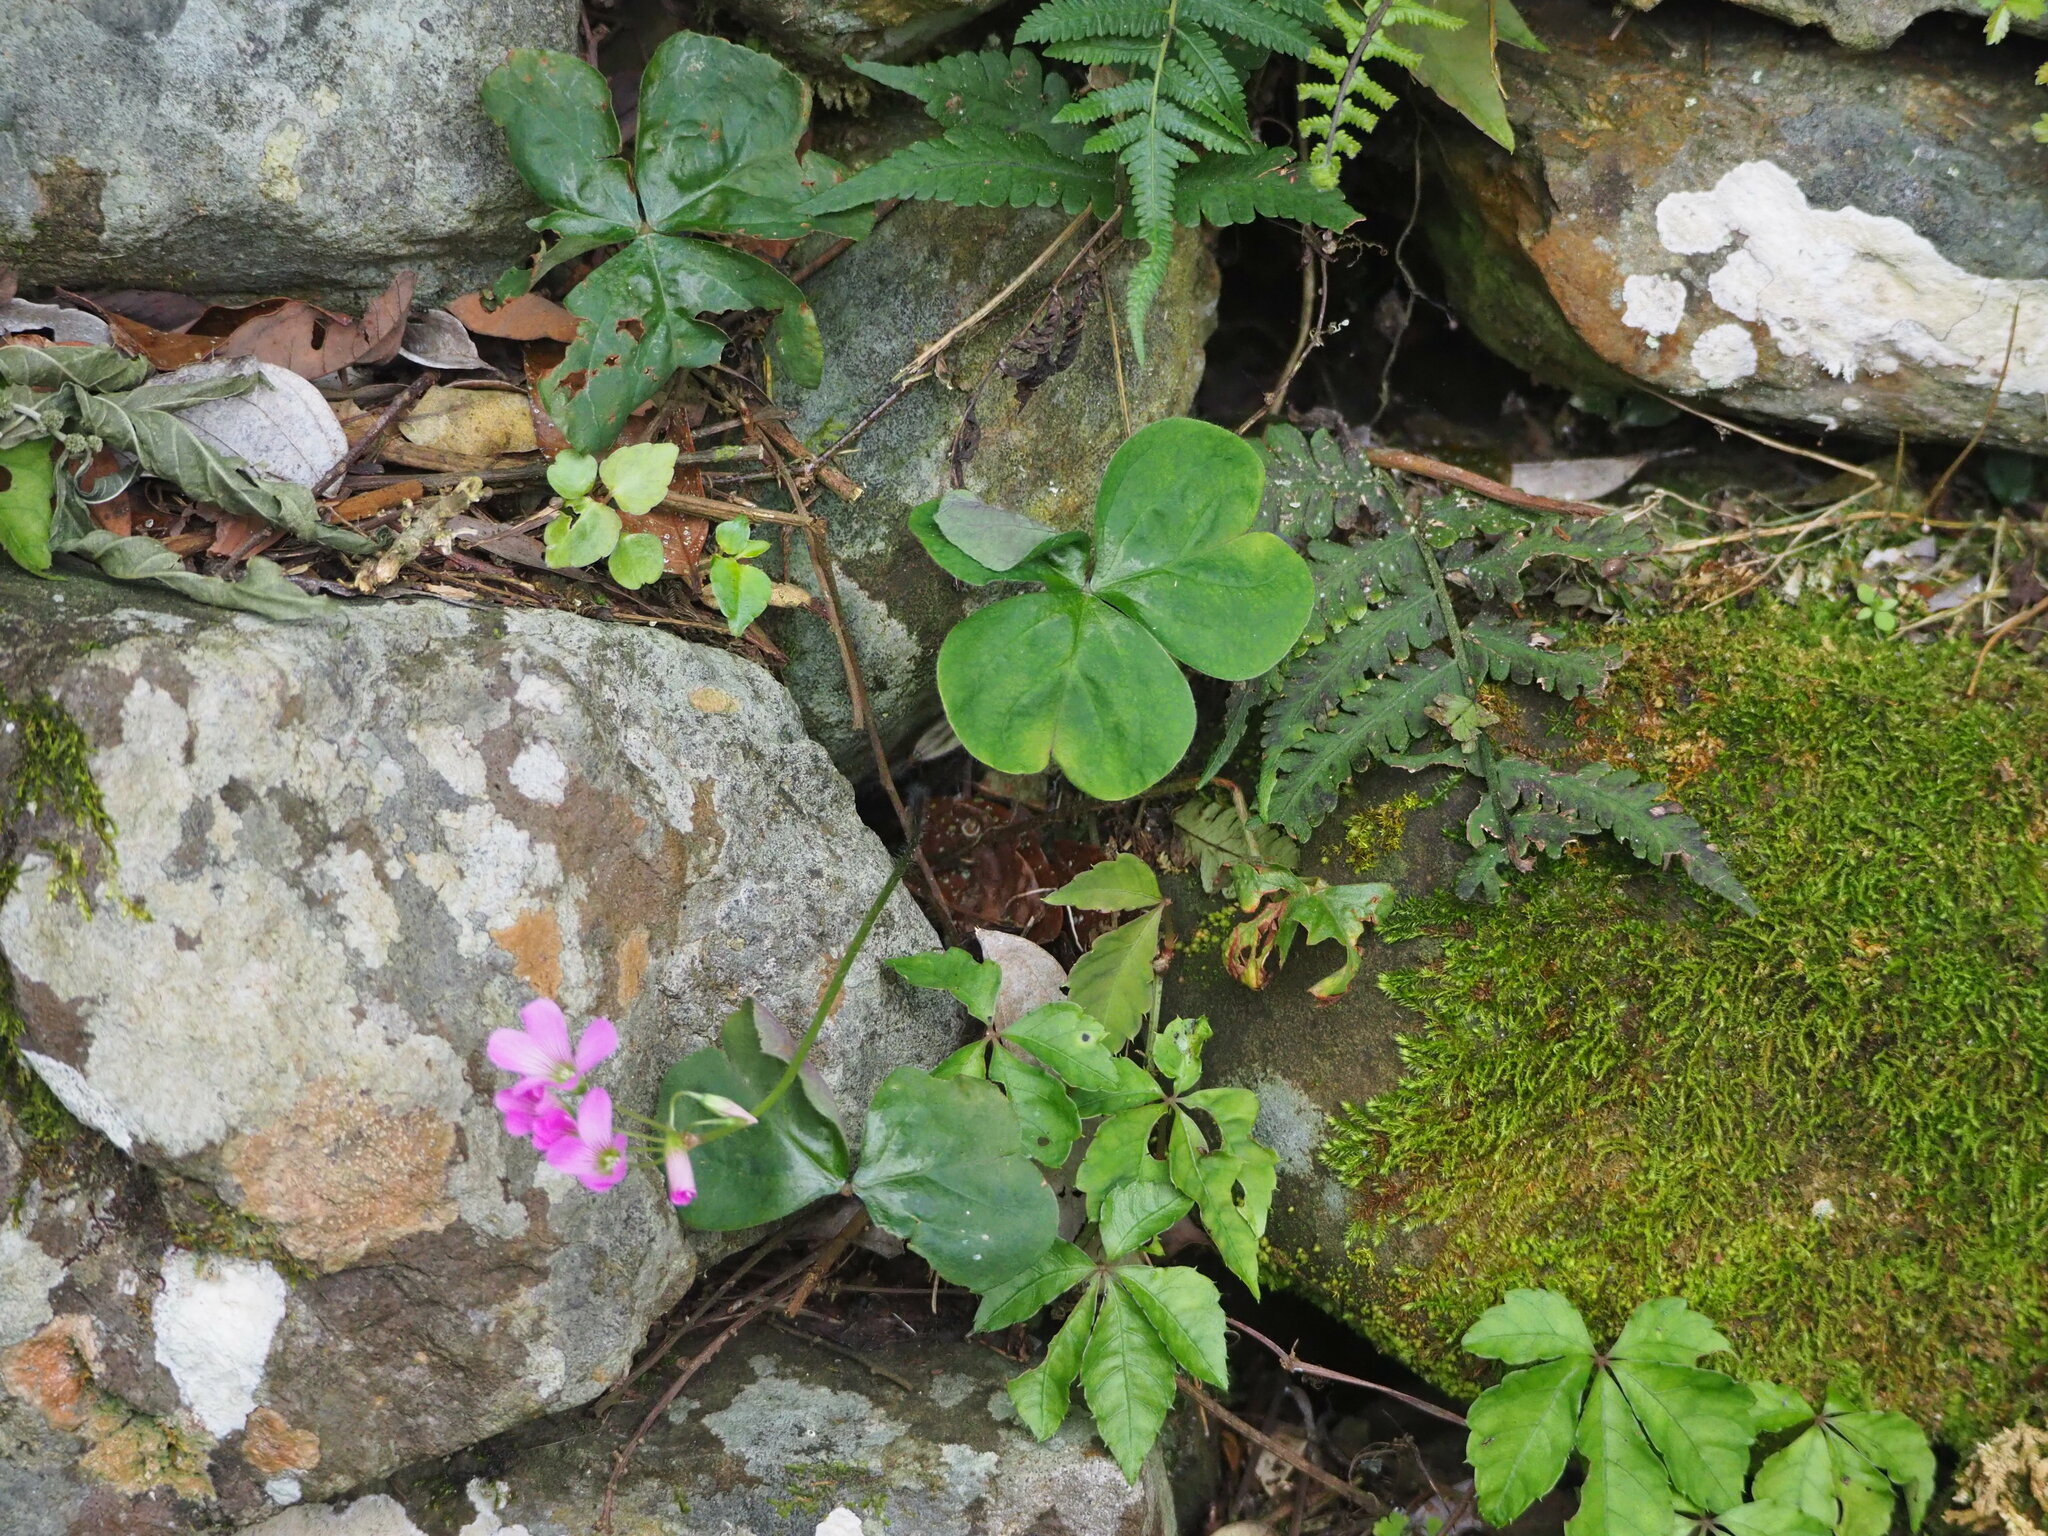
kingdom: Plantae
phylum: Tracheophyta
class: Magnoliopsida
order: Oxalidales
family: Oxalidaceae
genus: Oxalis
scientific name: Oxalis debilis
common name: Large-flowered pink-sorrel
